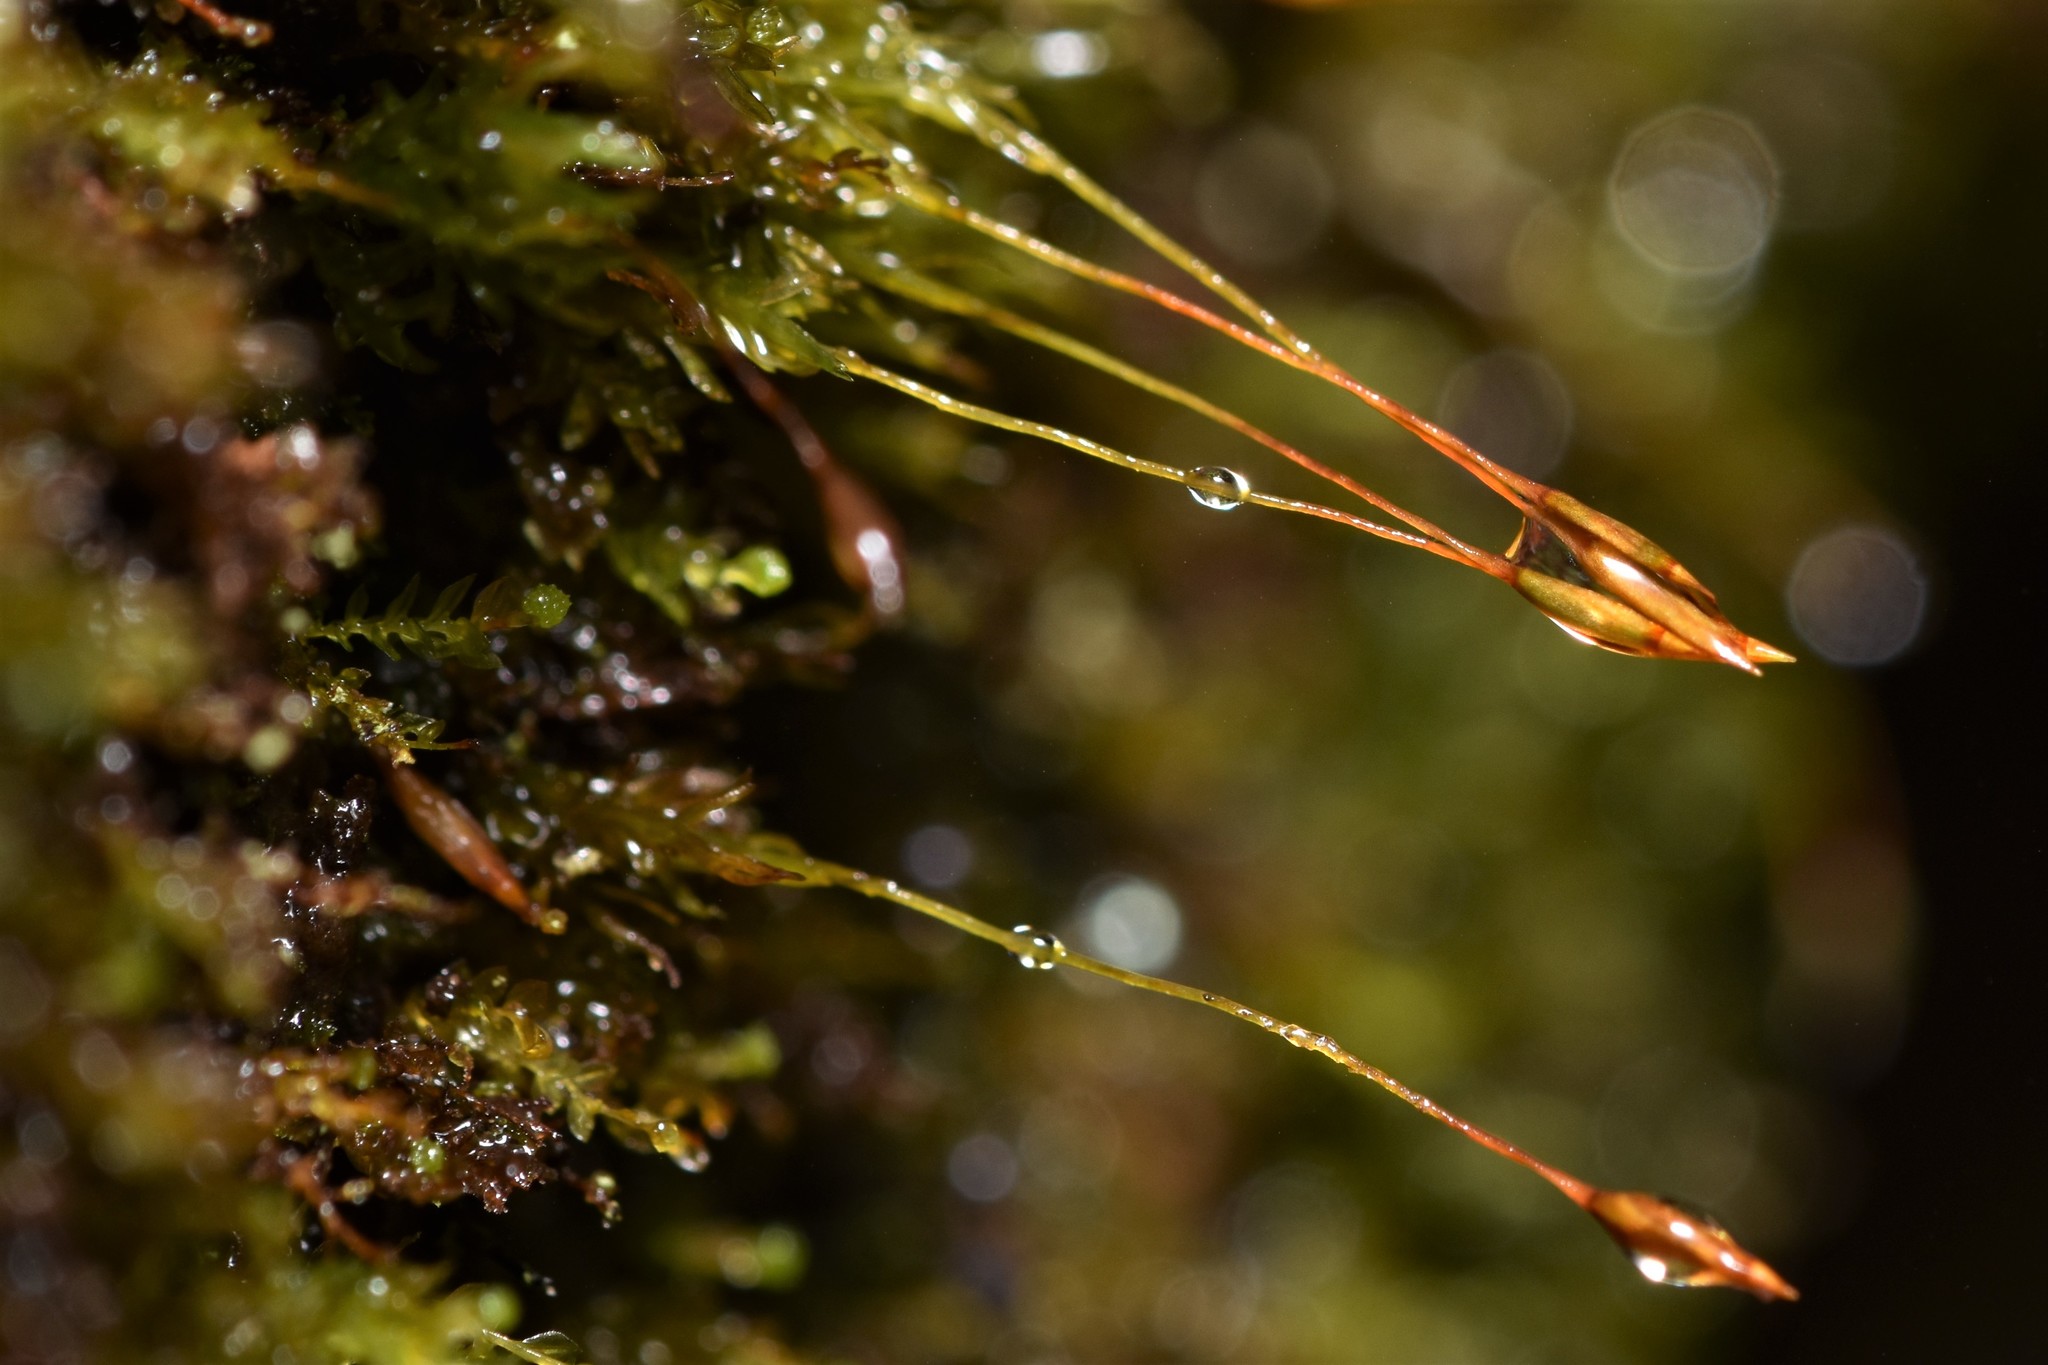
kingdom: Plantae
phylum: Bryophyta
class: Polytrichopsida
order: Tetraphidales
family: Tetraphidaceae
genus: Tetraphis
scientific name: Tetraphis pellucida
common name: Common four-toothed moss
